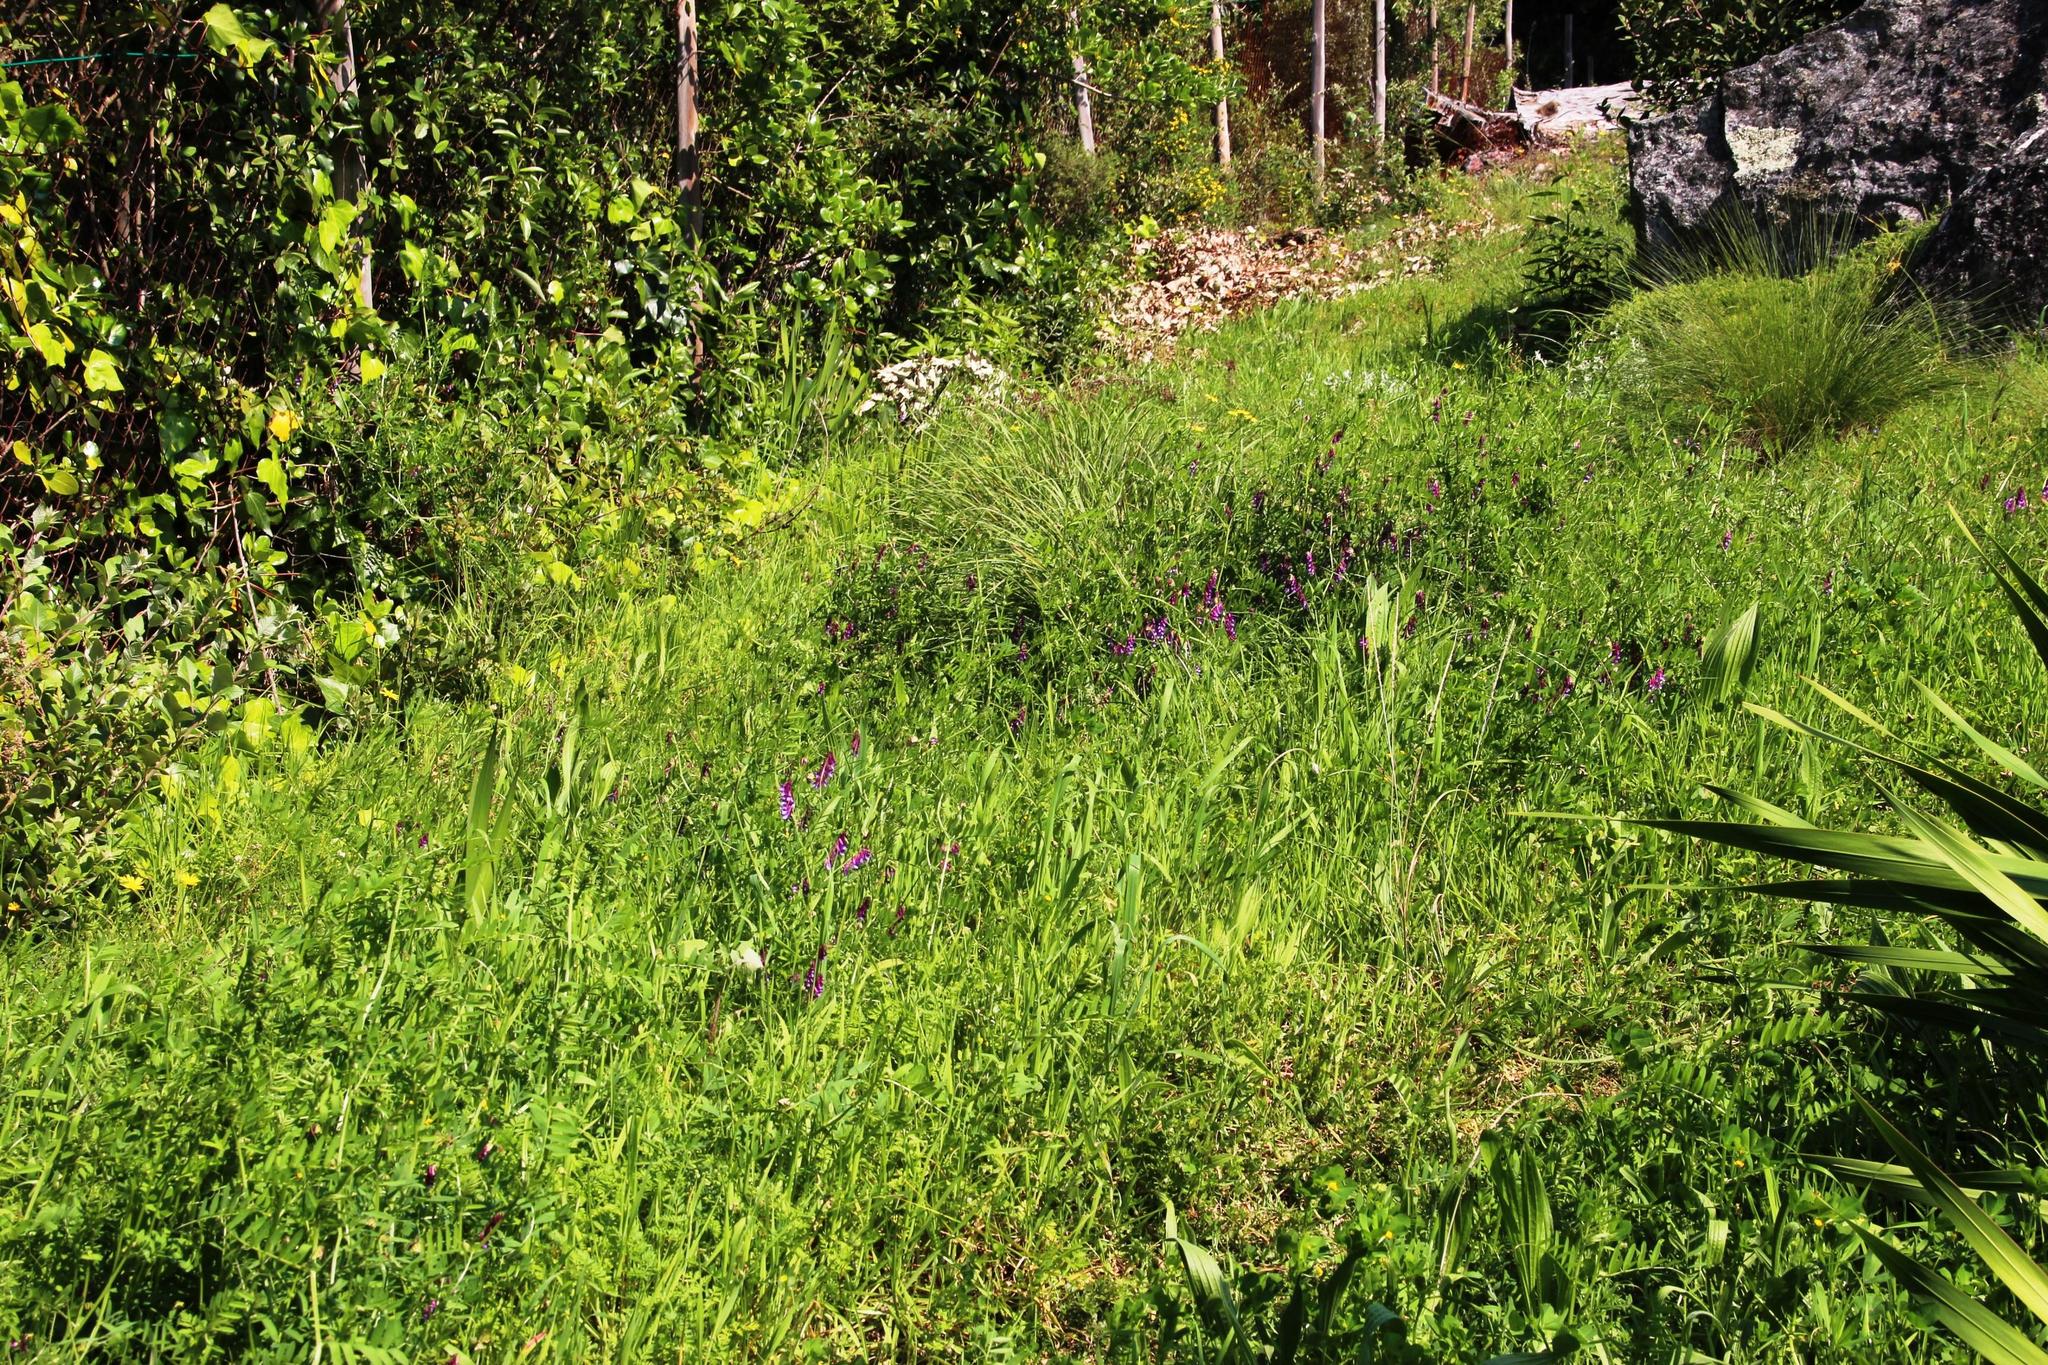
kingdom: Plantae
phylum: Tracheophyta
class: Magnoliopsida
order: Fabales
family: Fabaceae
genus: Vicia
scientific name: Vicia eriocarpa
